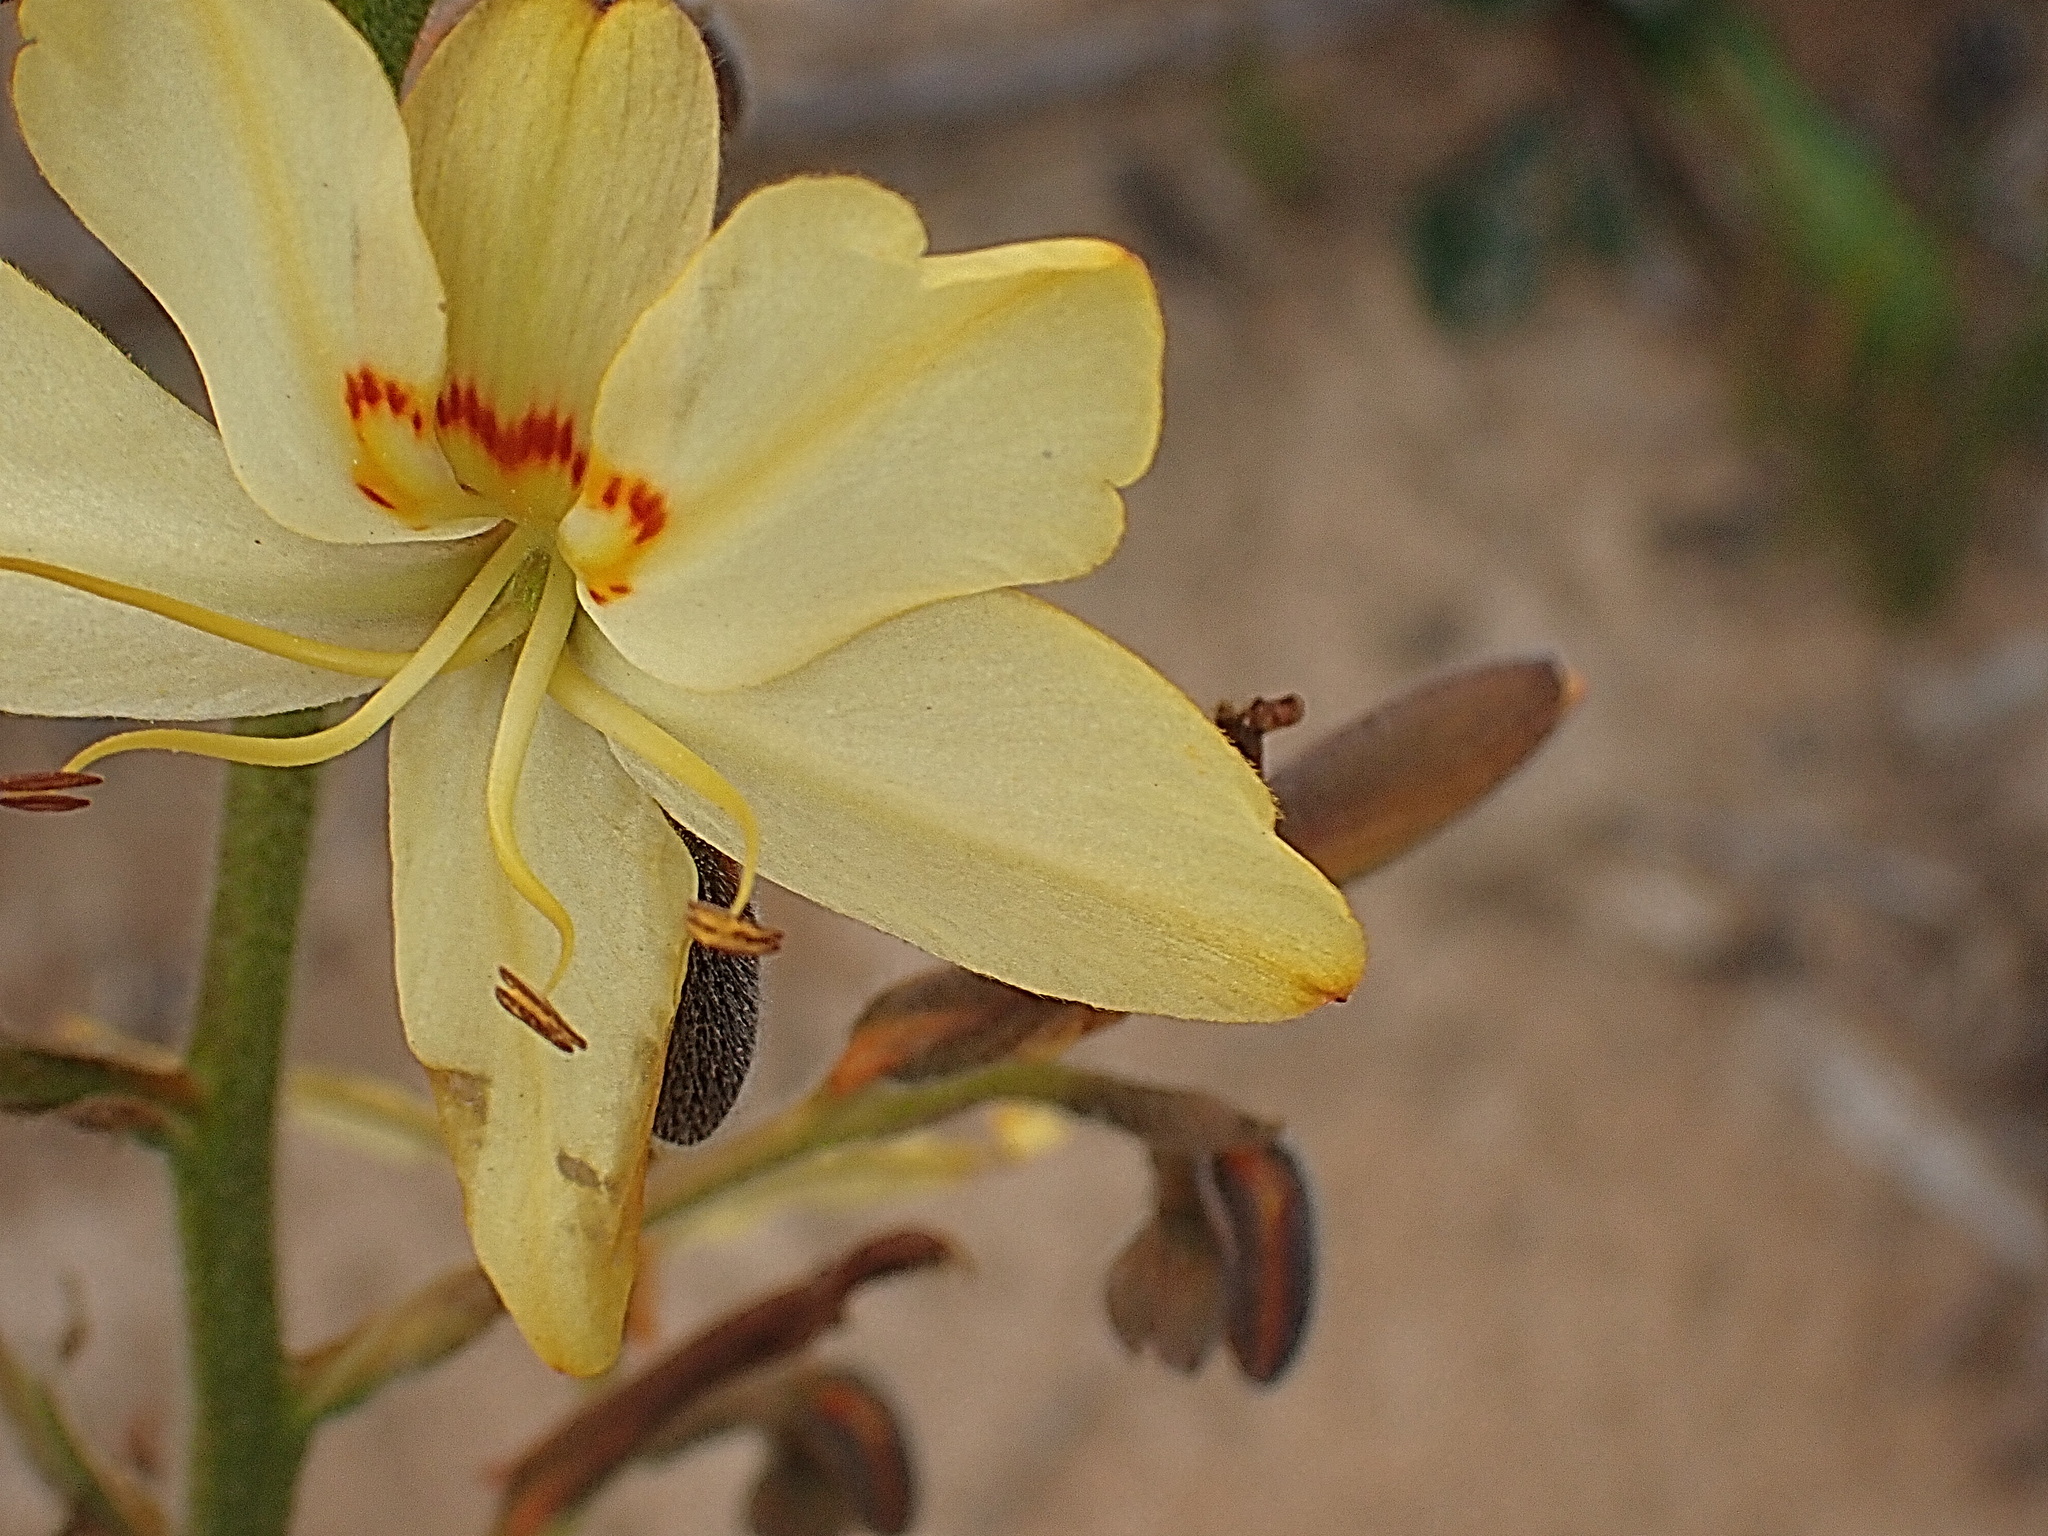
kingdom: Plantae
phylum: Tracheophyta
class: Liliopsida
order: Commelinales
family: Haemodoraceae
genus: Wachendorfia
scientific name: Wachendorfia paniculata
